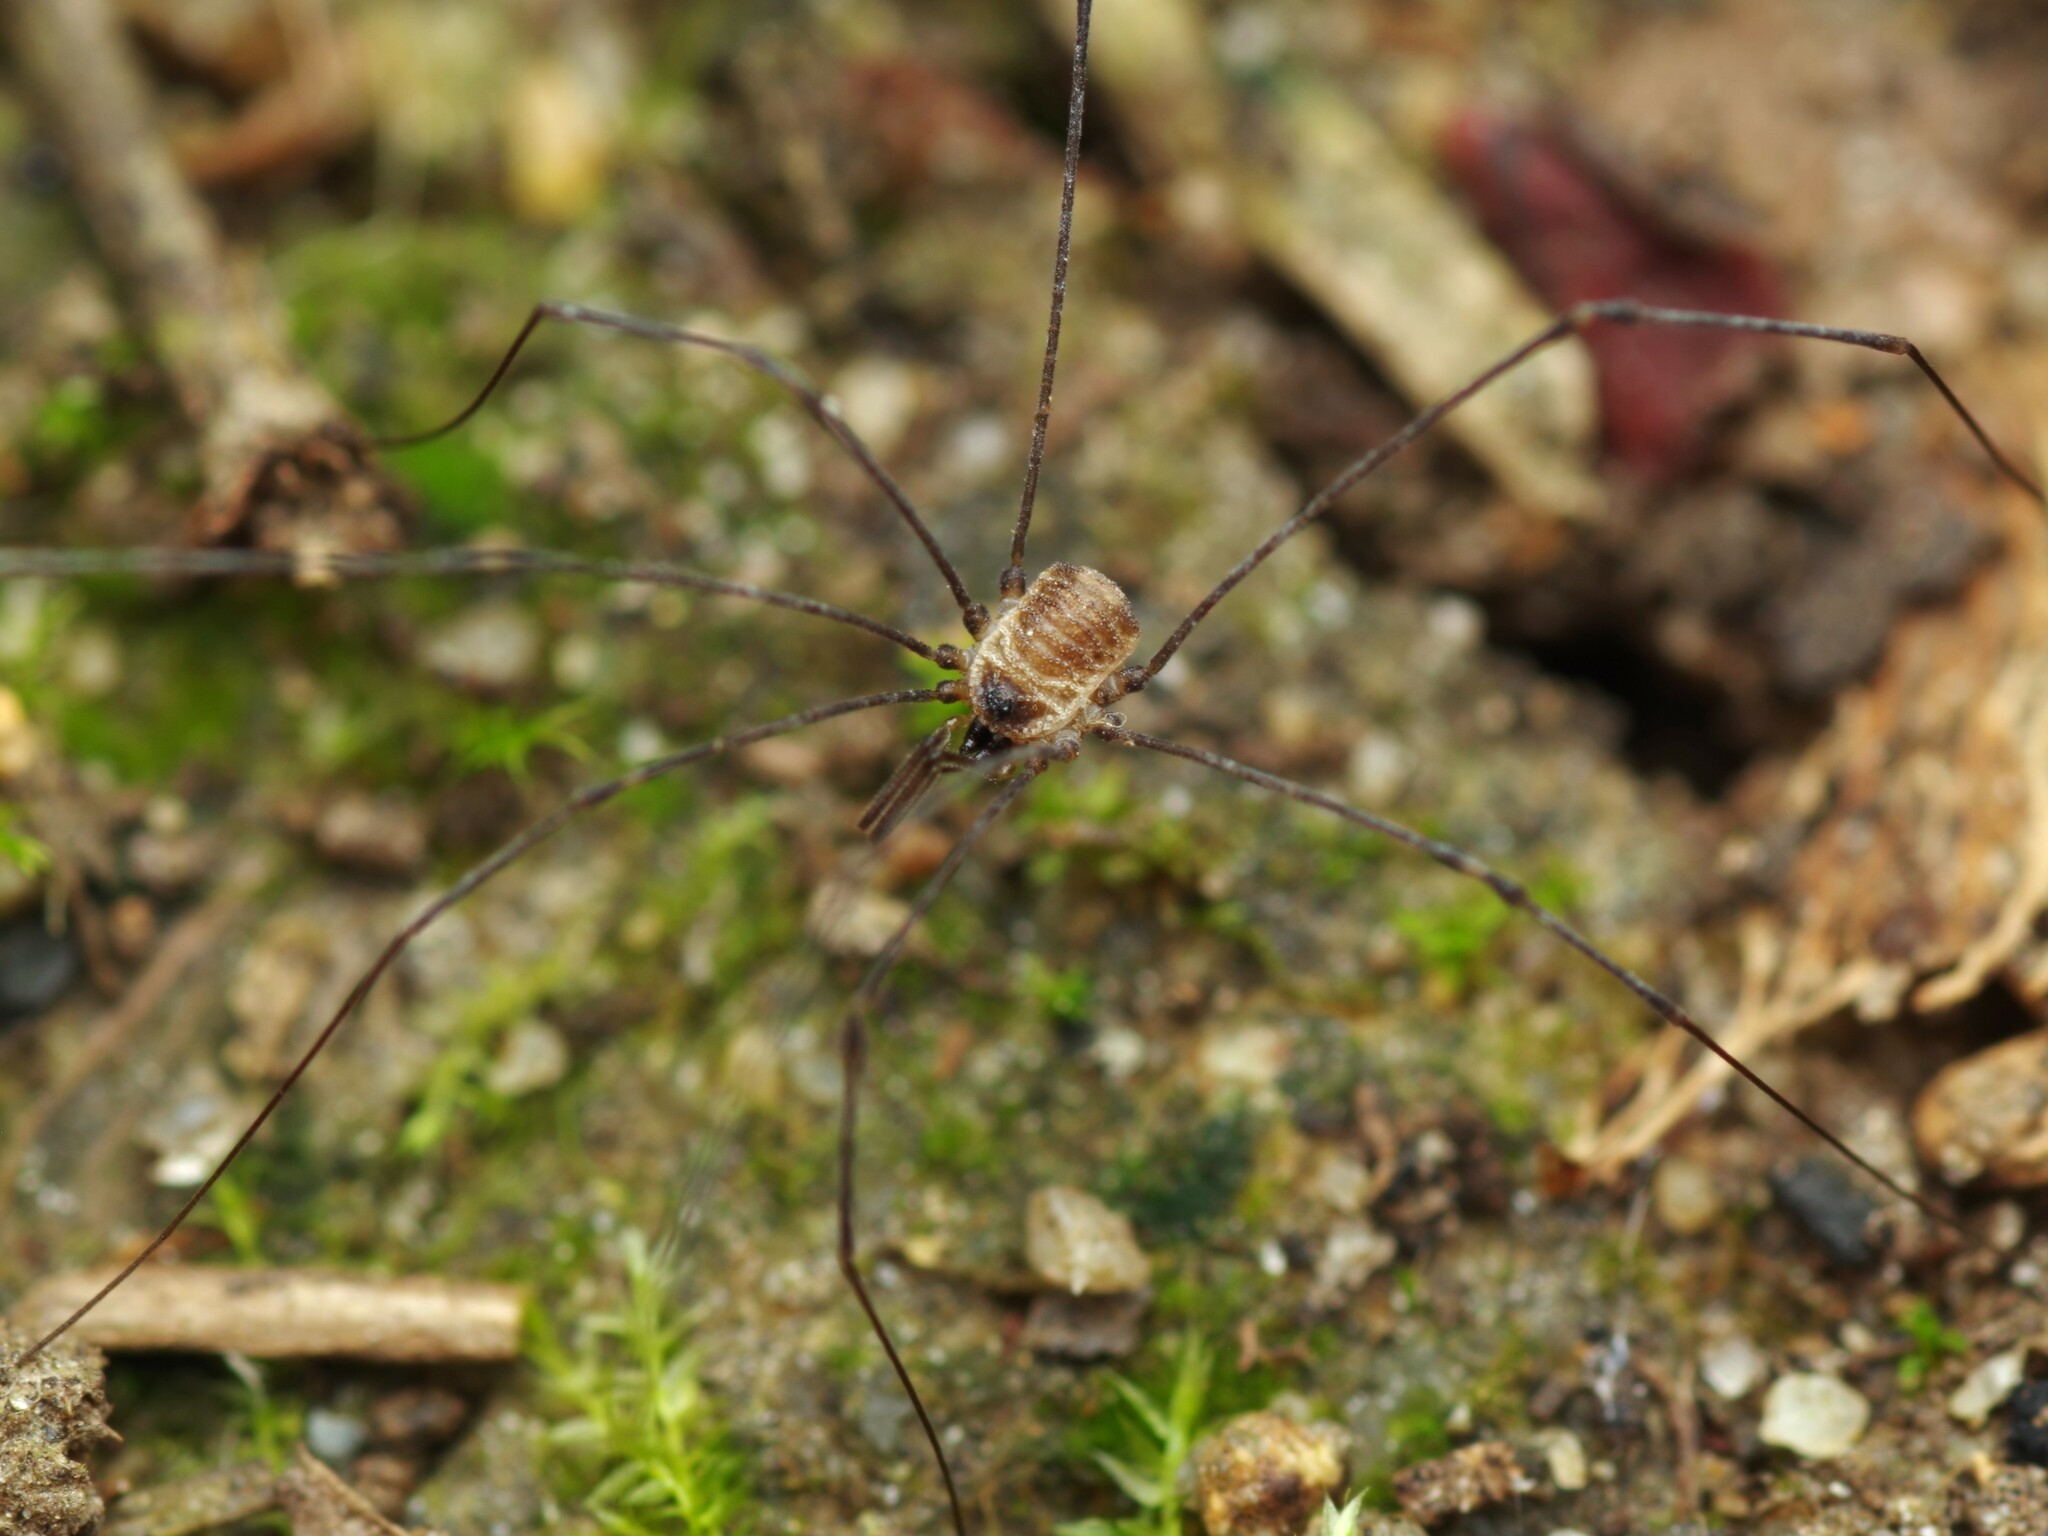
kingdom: Animalia
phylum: Arthropoda
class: Arachnida
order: Opiliones
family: Nemastomatidae
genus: Mitostoma
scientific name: Mitostoma chrysomelas
